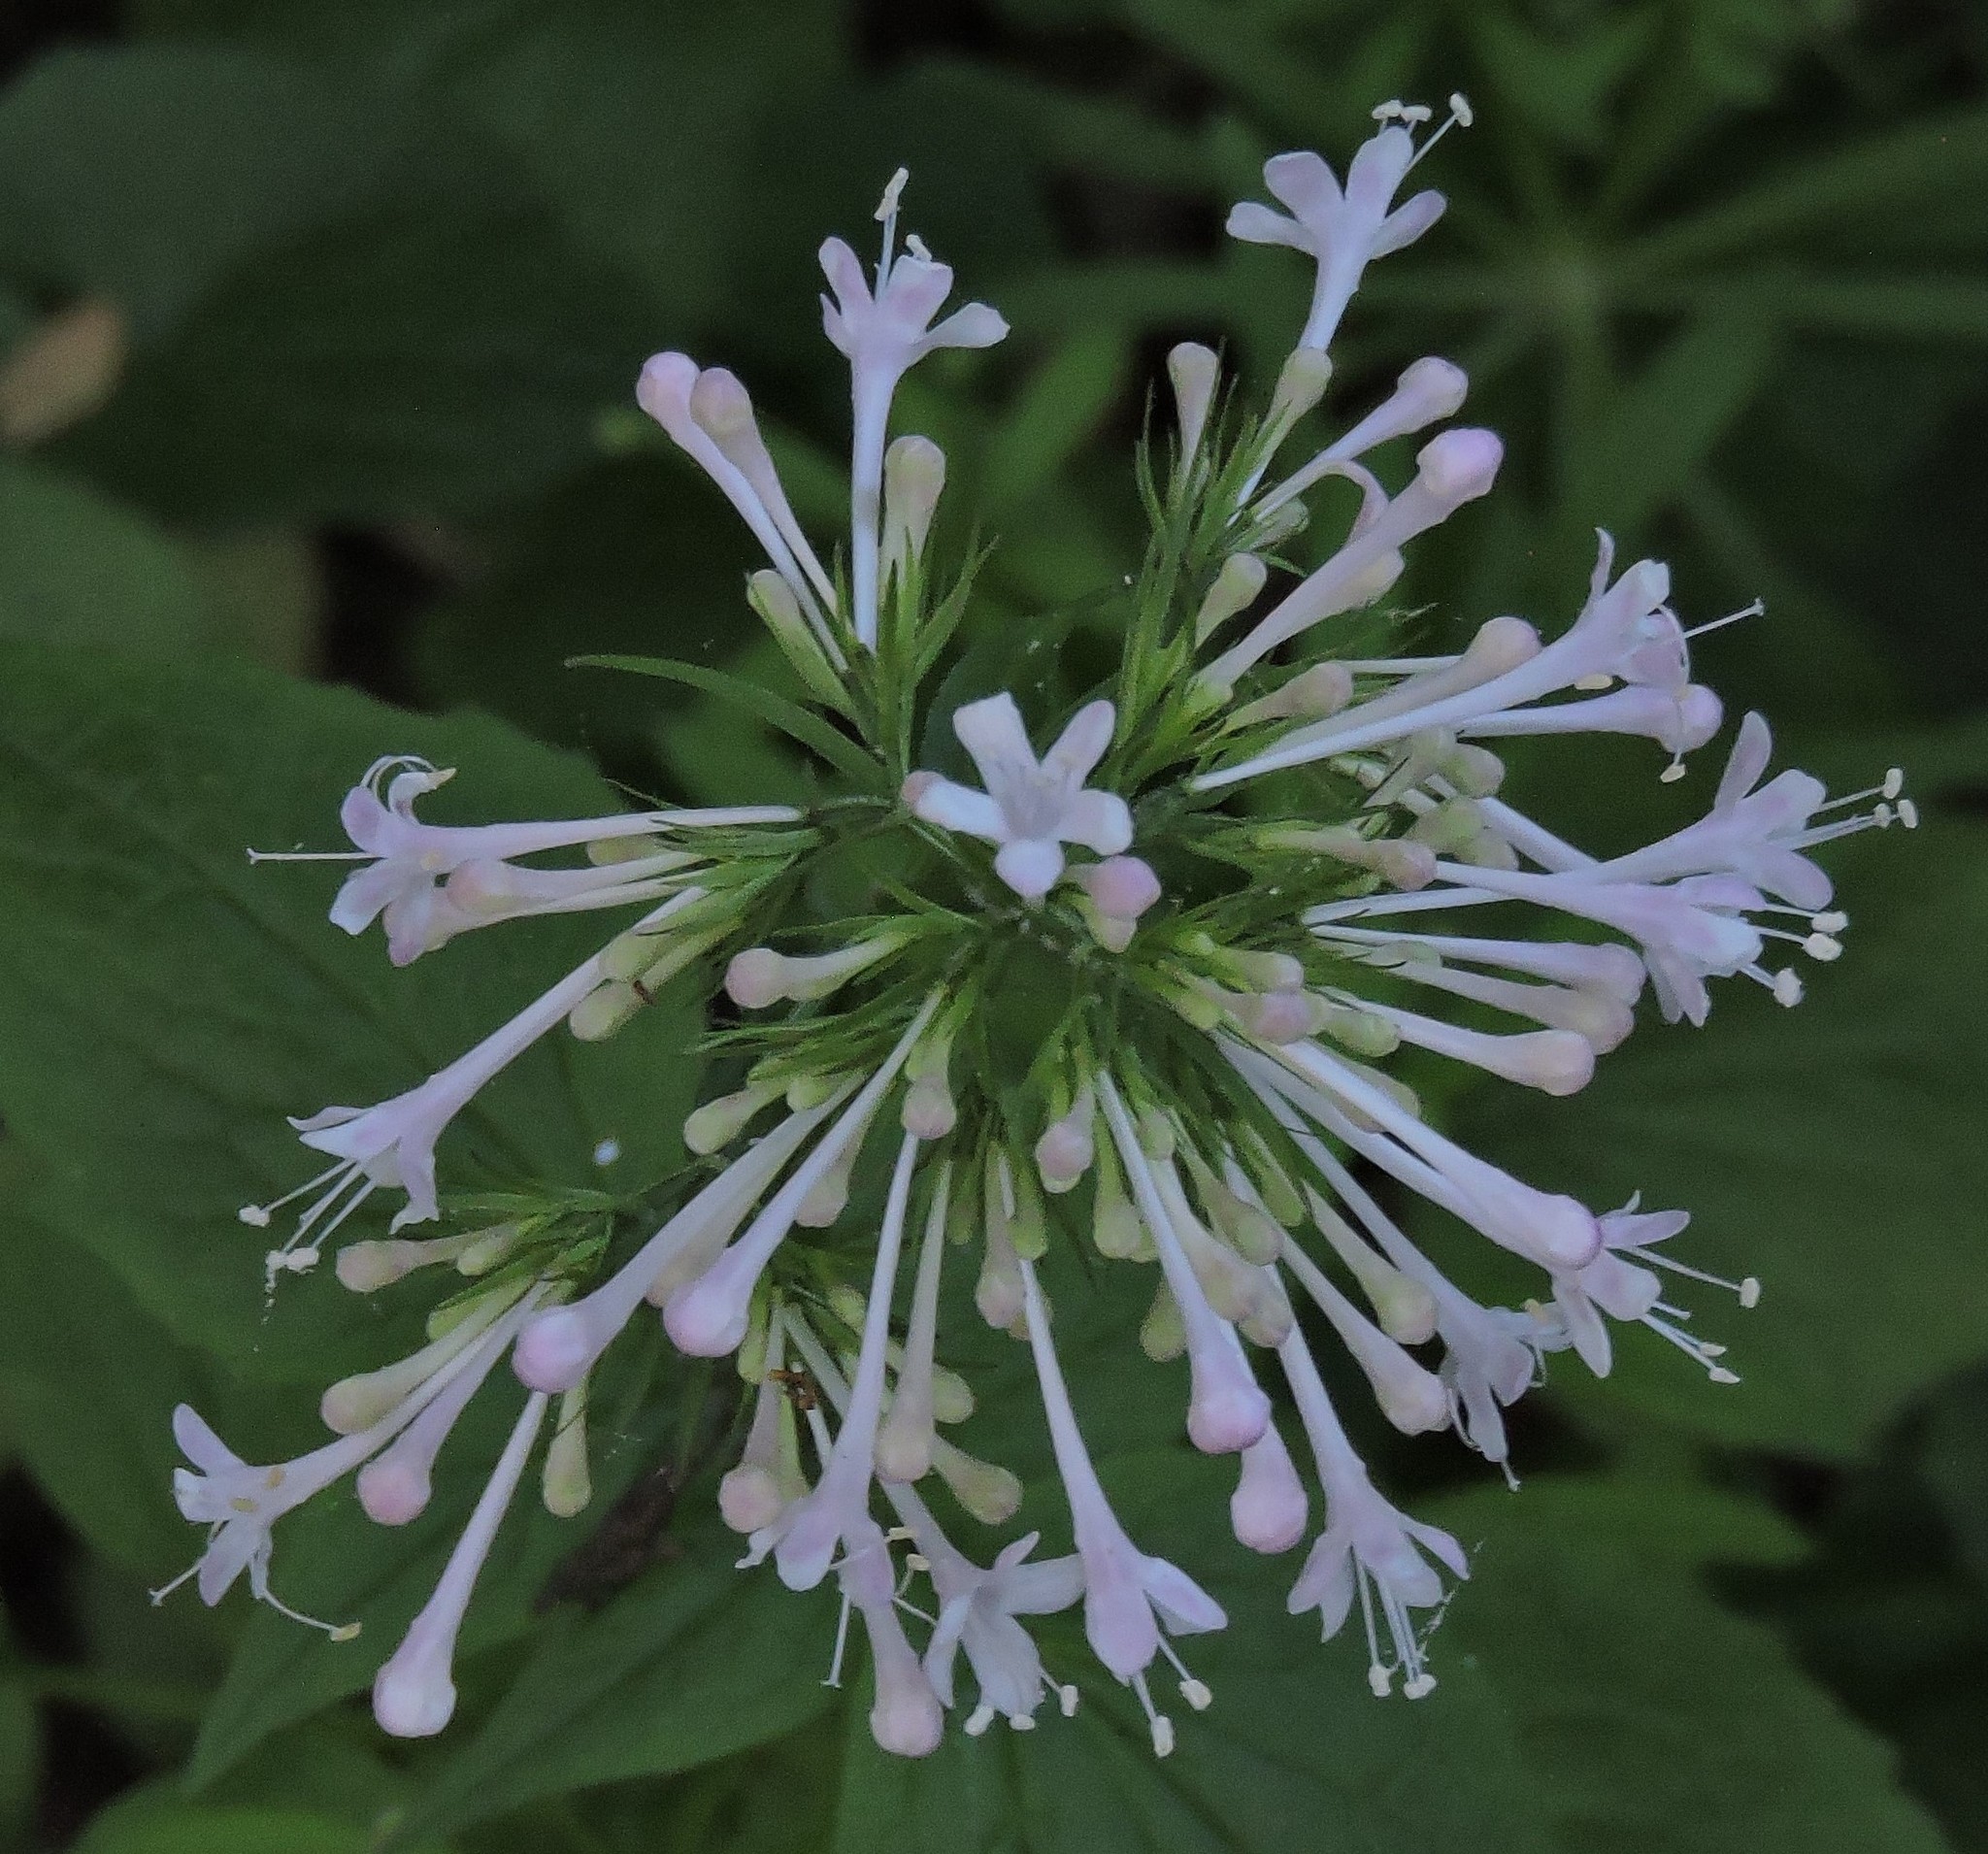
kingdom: Plantae
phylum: Tracheophyta
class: Magnoliopsida
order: Dipsacales
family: Caprifoliaceae
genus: Valeriana
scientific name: Valeriana pauciflora
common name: Long-tube valeriana
